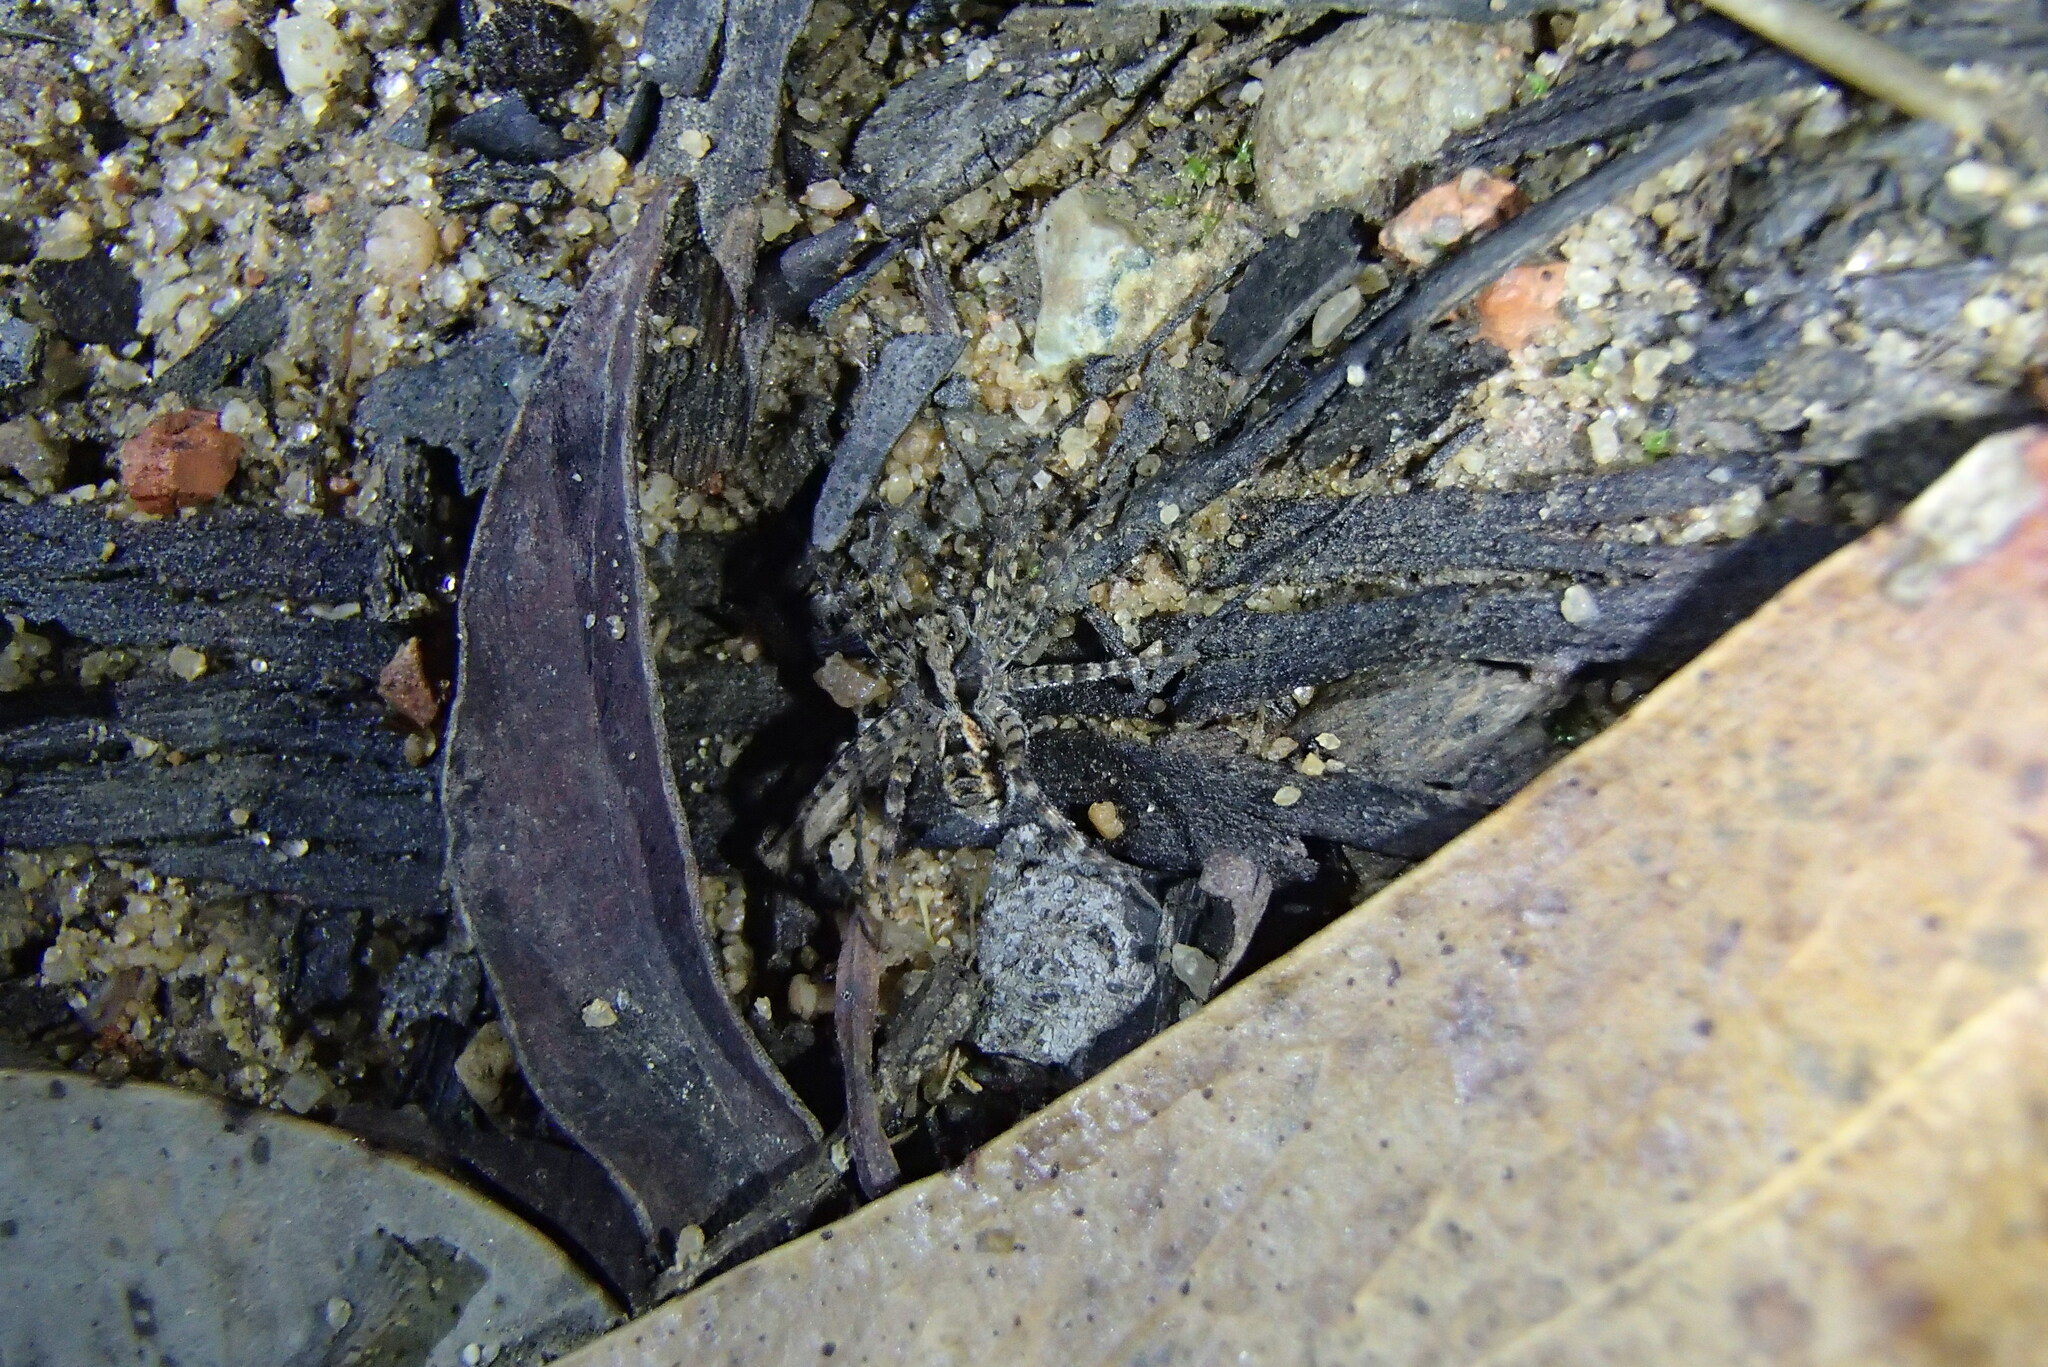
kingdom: Animalia
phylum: Arthropoda
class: Arachnida
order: Araneae
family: Lycosidae
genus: Venator
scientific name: Venator spenceri
